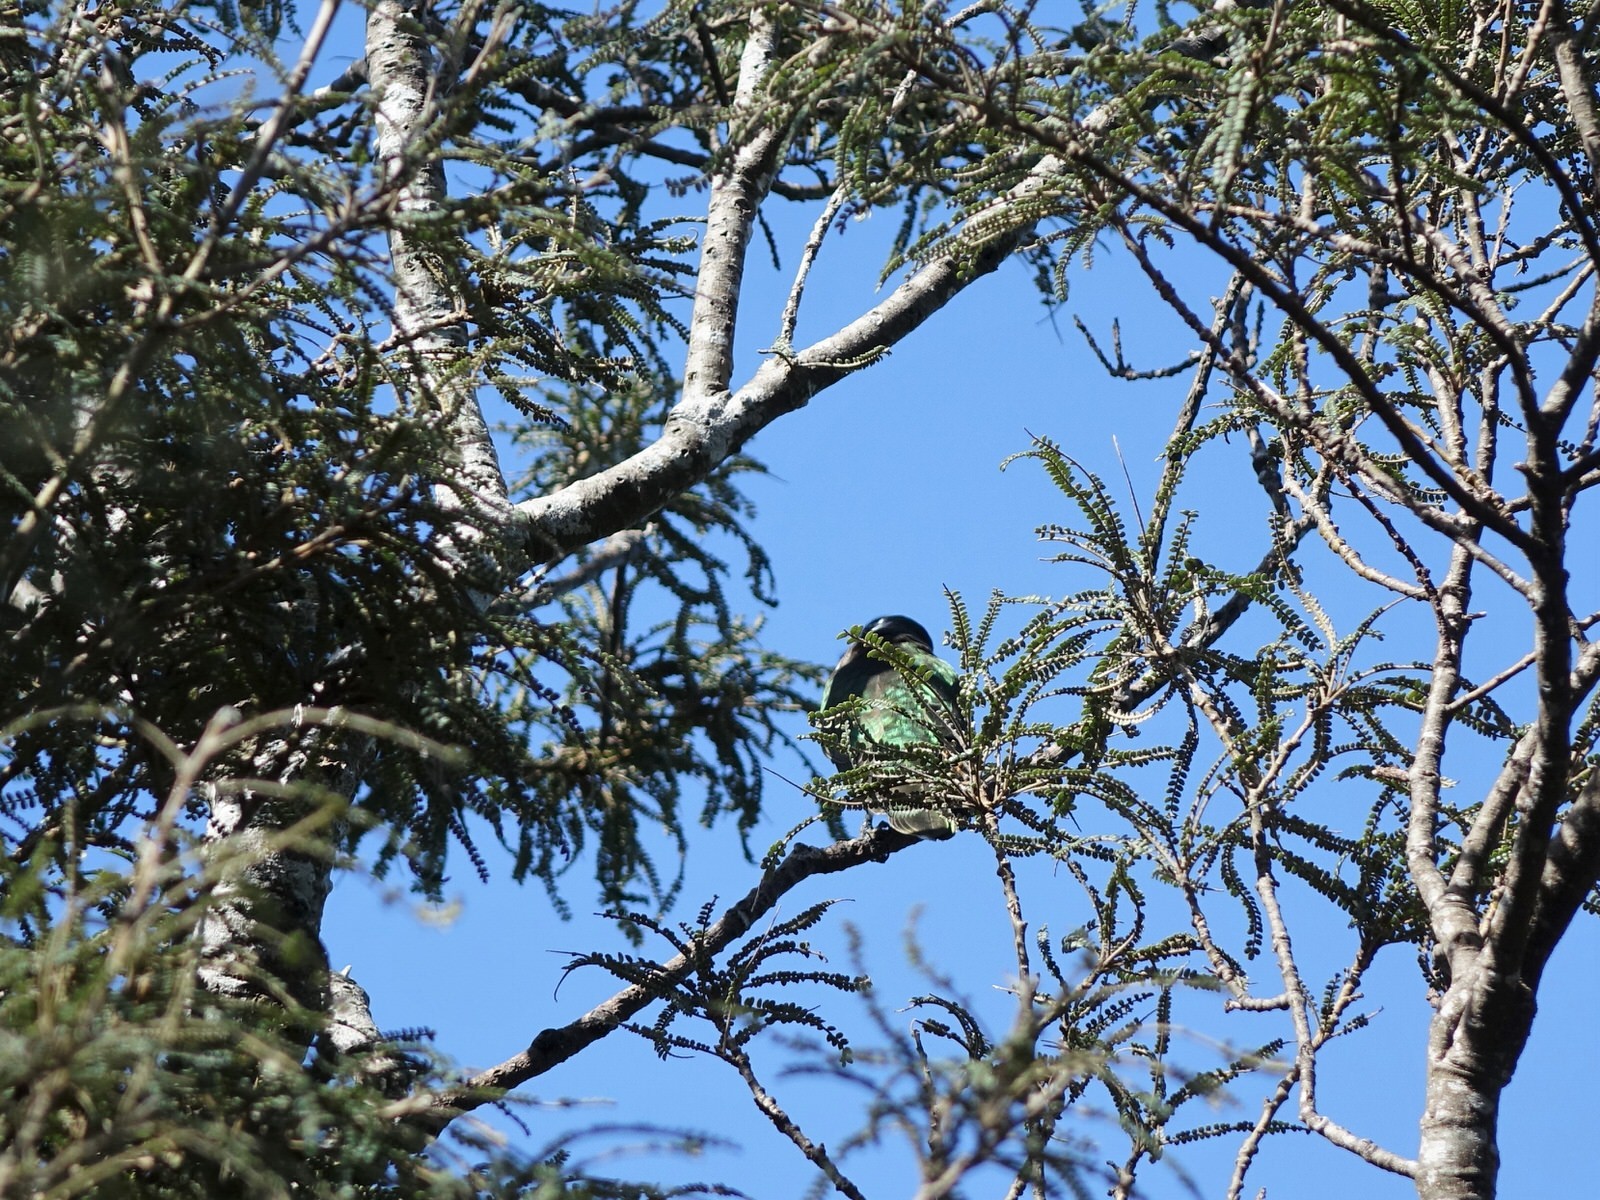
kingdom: Animalia
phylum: Chordata
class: Aves
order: Cuculiformes
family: Cuculidae
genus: Chrysococcyx
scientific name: Chrysococcyx lucidus
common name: Shining bronze cuckoo
